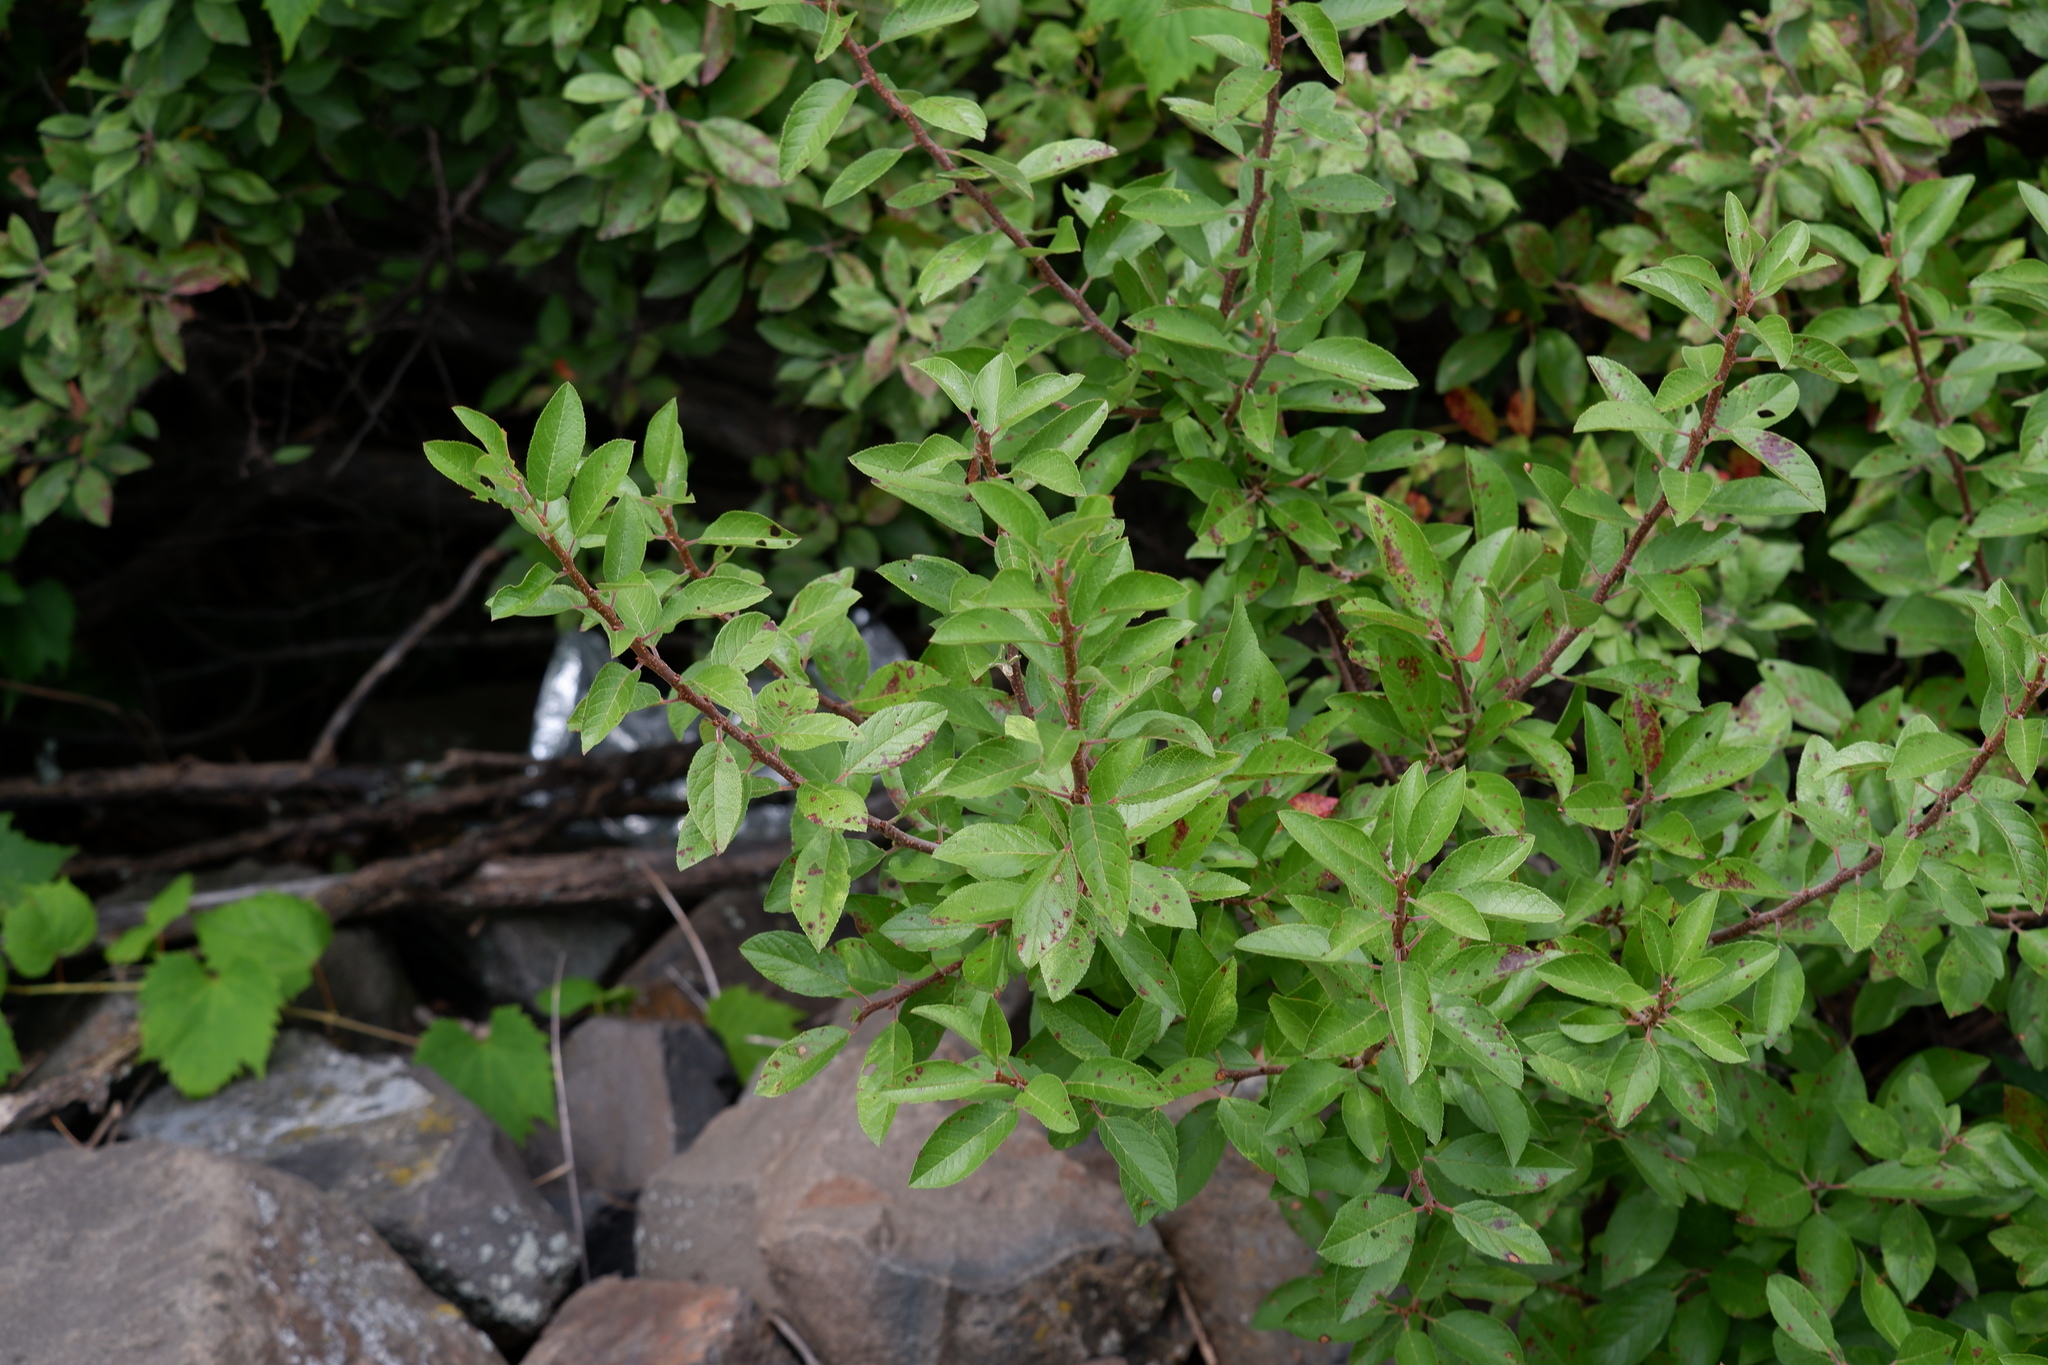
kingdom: Plantae
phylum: Tracheophyta
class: Magnoliopsida
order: Rosales
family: Rosaceae
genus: Prunus
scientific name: Prunus maritima
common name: Beach plum
